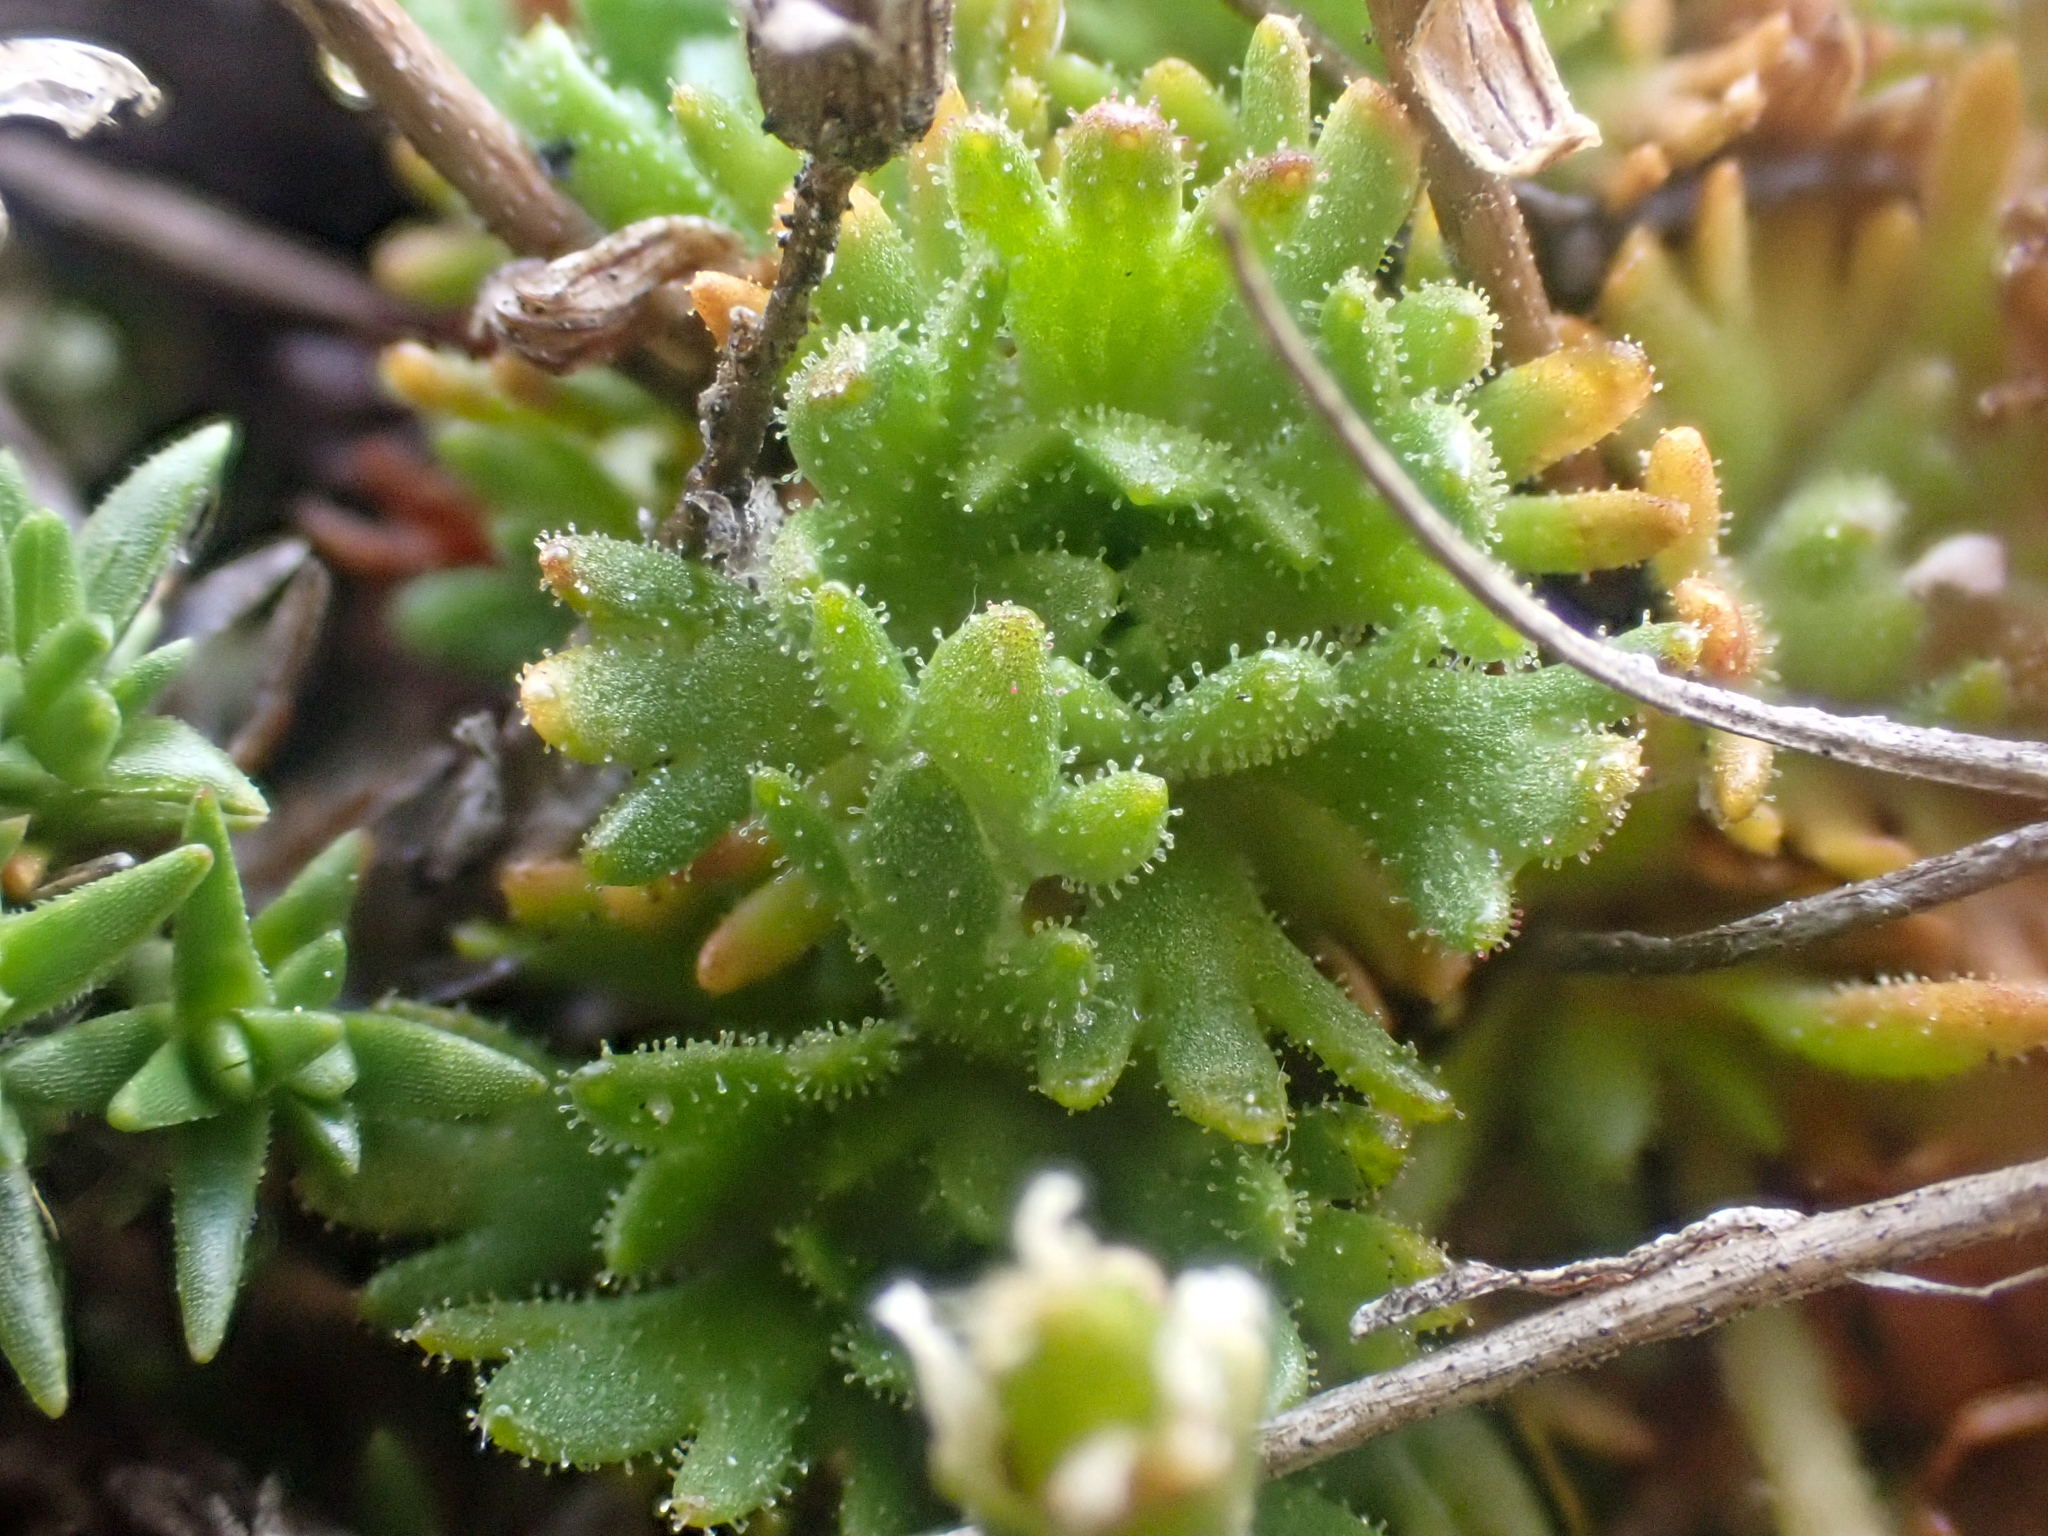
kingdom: Plantae
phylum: Tracheophyta
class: Magnoliopsida
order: Saxifragales
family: Saxifragaceae
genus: Saxifraga
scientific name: Saxifraga cespitosa
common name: Tufted saxifrage
